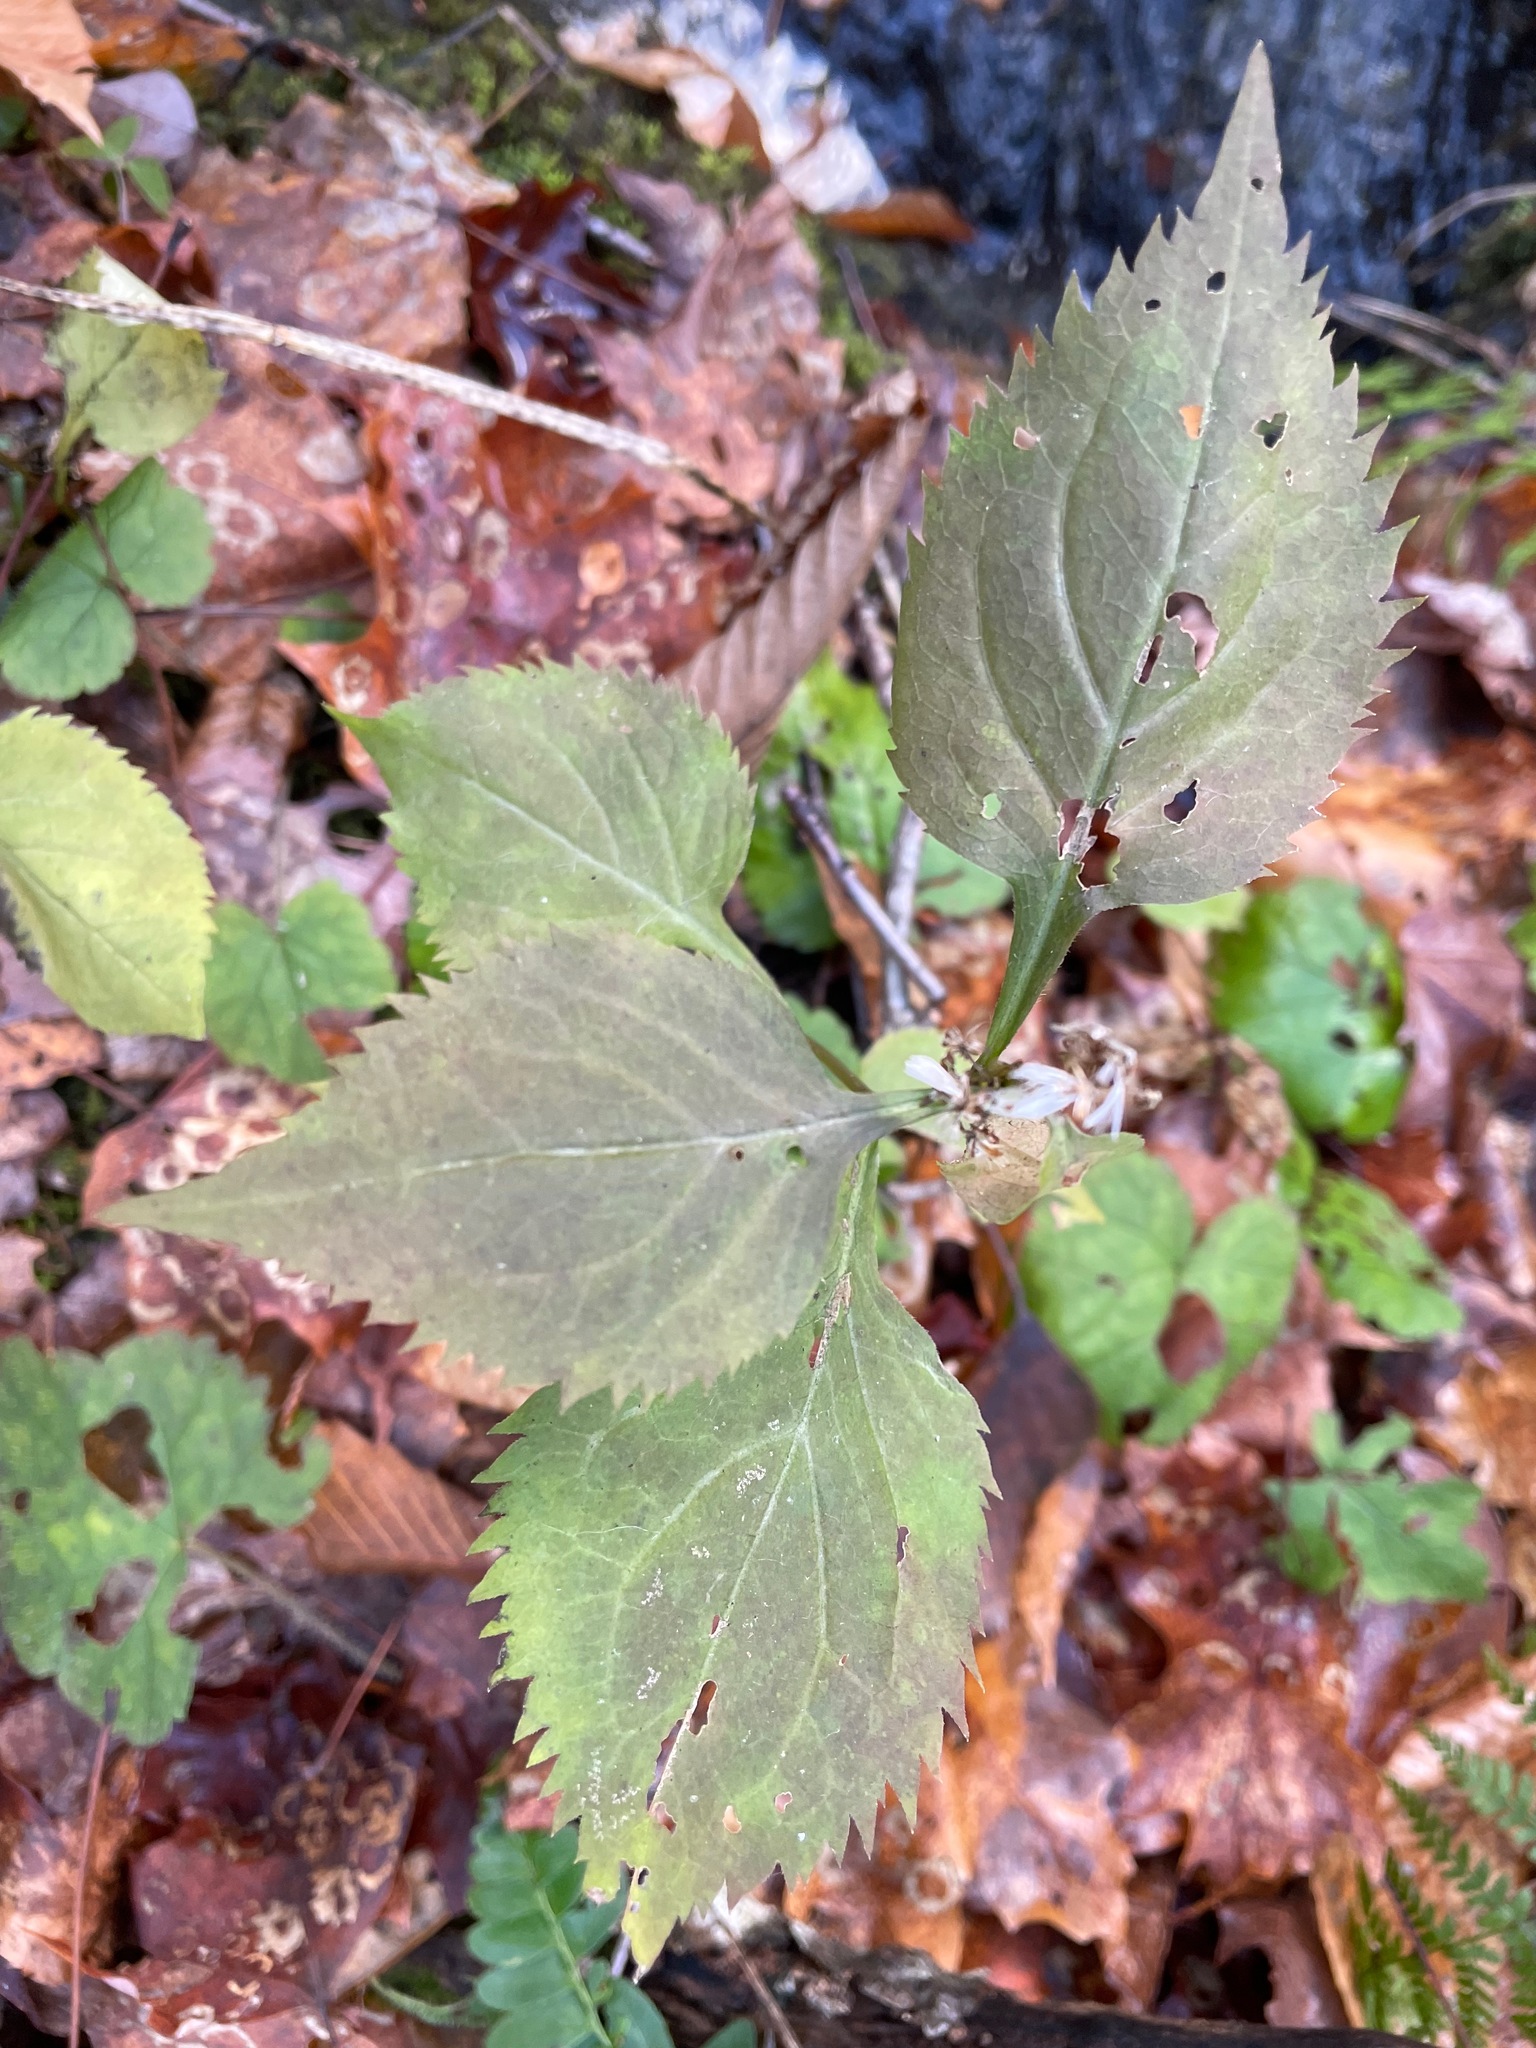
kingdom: Plantae
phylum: Tracheophyta
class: Magnoliopsida
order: Asterales
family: Asteraceae
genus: Solidago
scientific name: Solidago flexicaulis
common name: Zig-zag goldenrod
